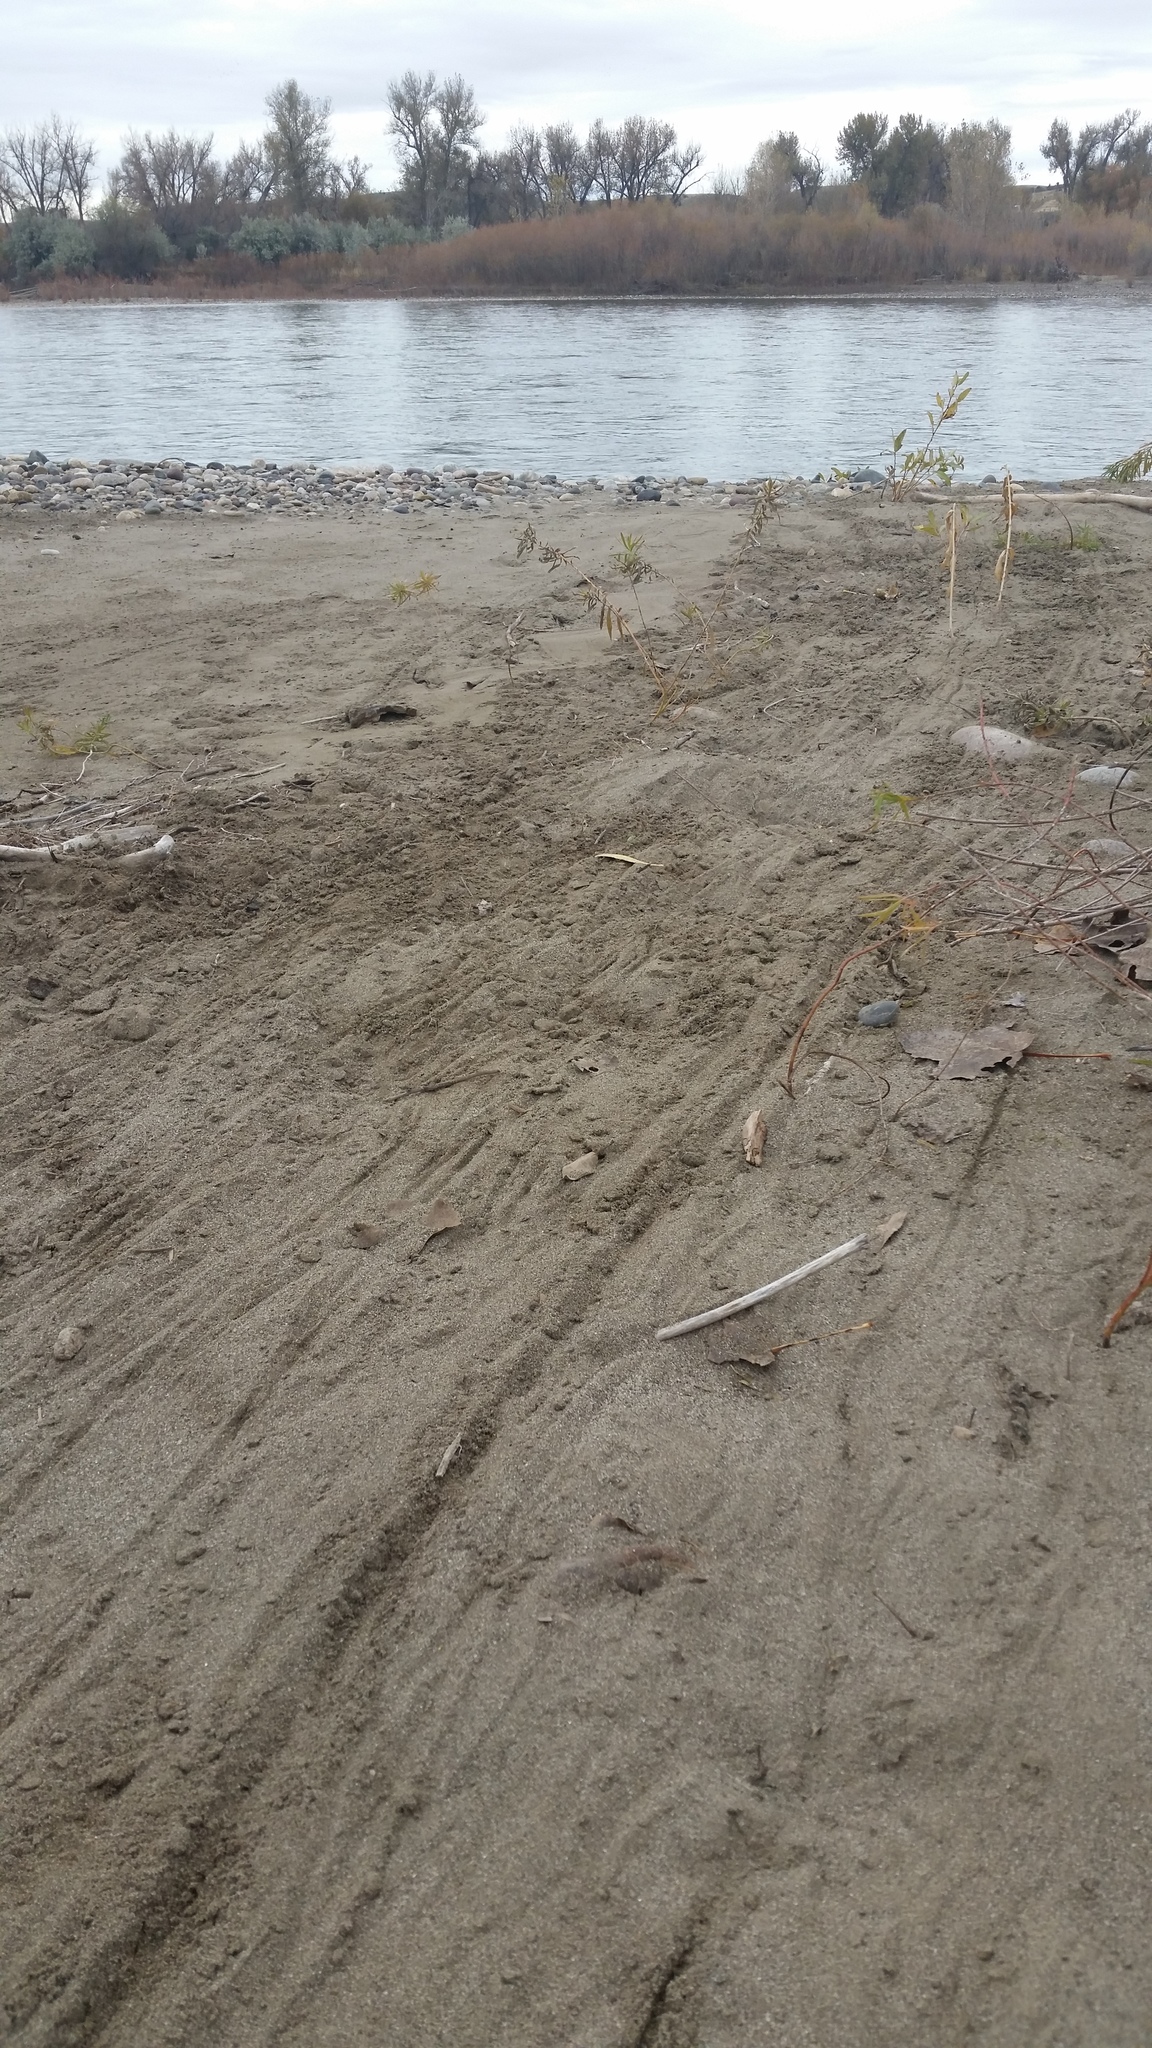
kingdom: Animalia
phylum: Chordata
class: Mammalia
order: Rodentia
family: Castoridae
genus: Castor
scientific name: Castor canadensis
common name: American beaver
